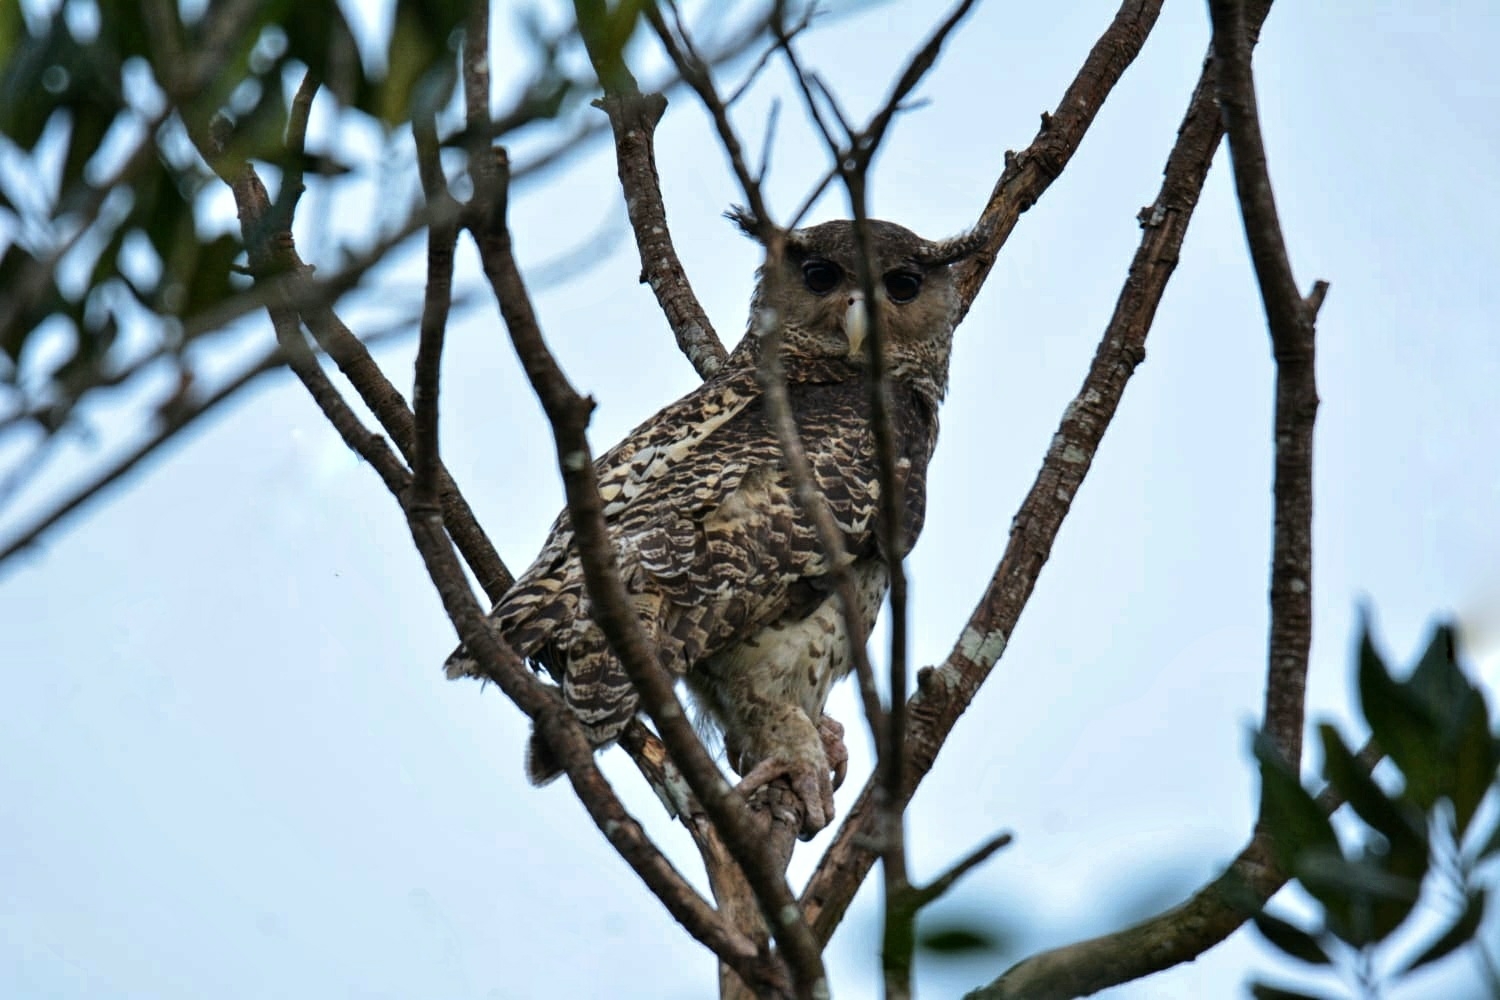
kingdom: Animalia
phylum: Chordata
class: Aves
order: Strigiformes
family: Strigidae
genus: Ketupa
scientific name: Ketupa nipalensis
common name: Spot-bellied eagle-owl
